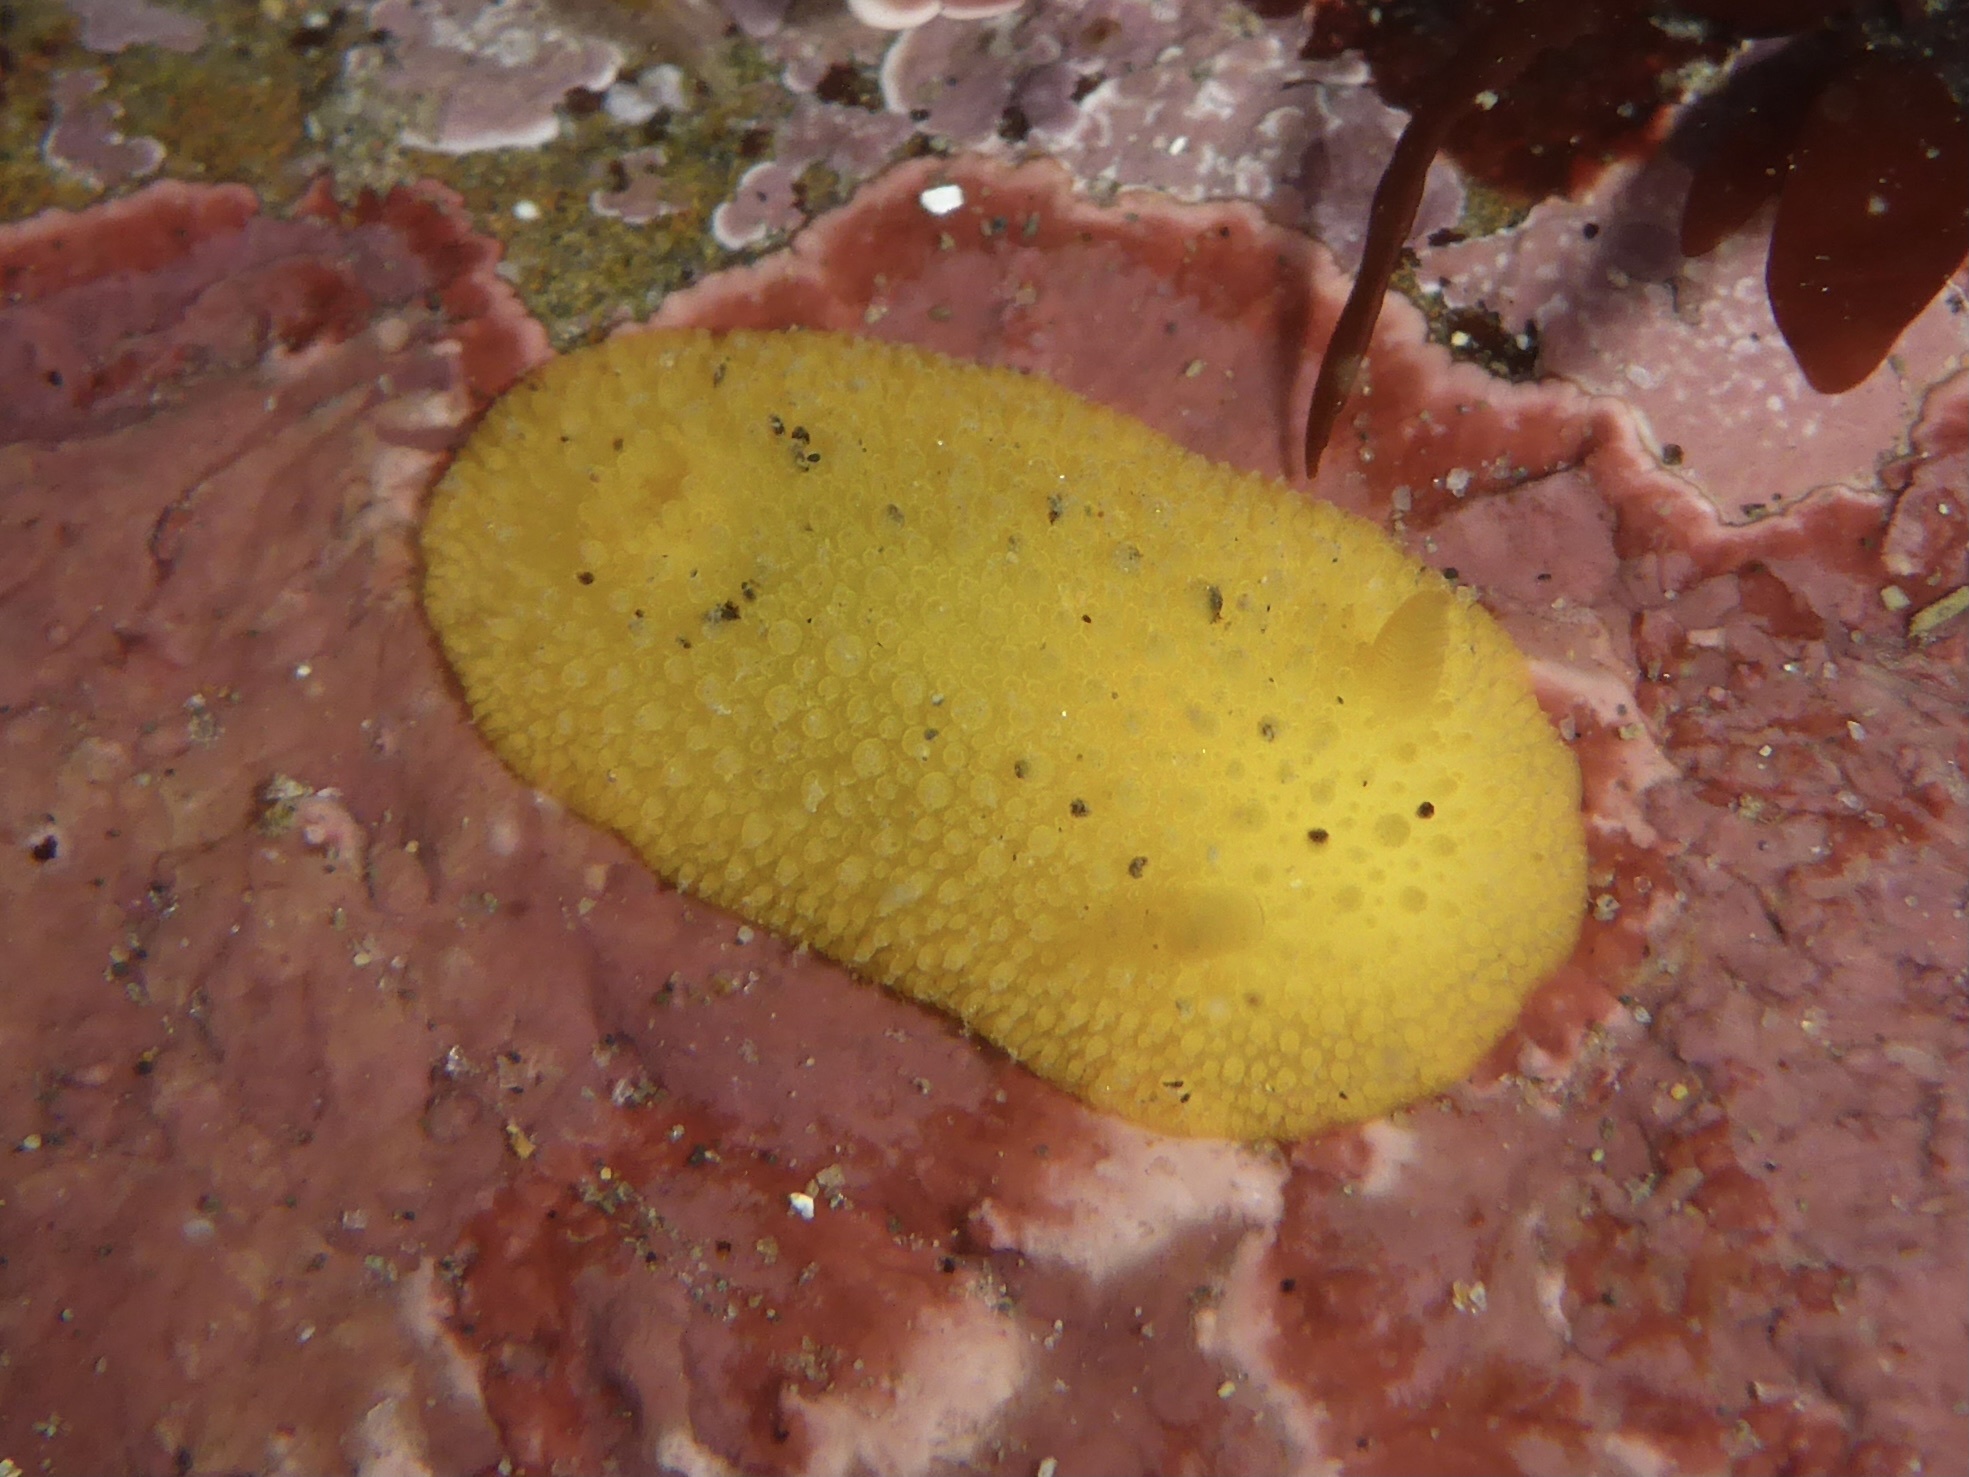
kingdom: Animalia
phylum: Mollusca
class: Gastropoda
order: Nudibranchia
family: Dorididae
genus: Doris
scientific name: Doris montereyensis
